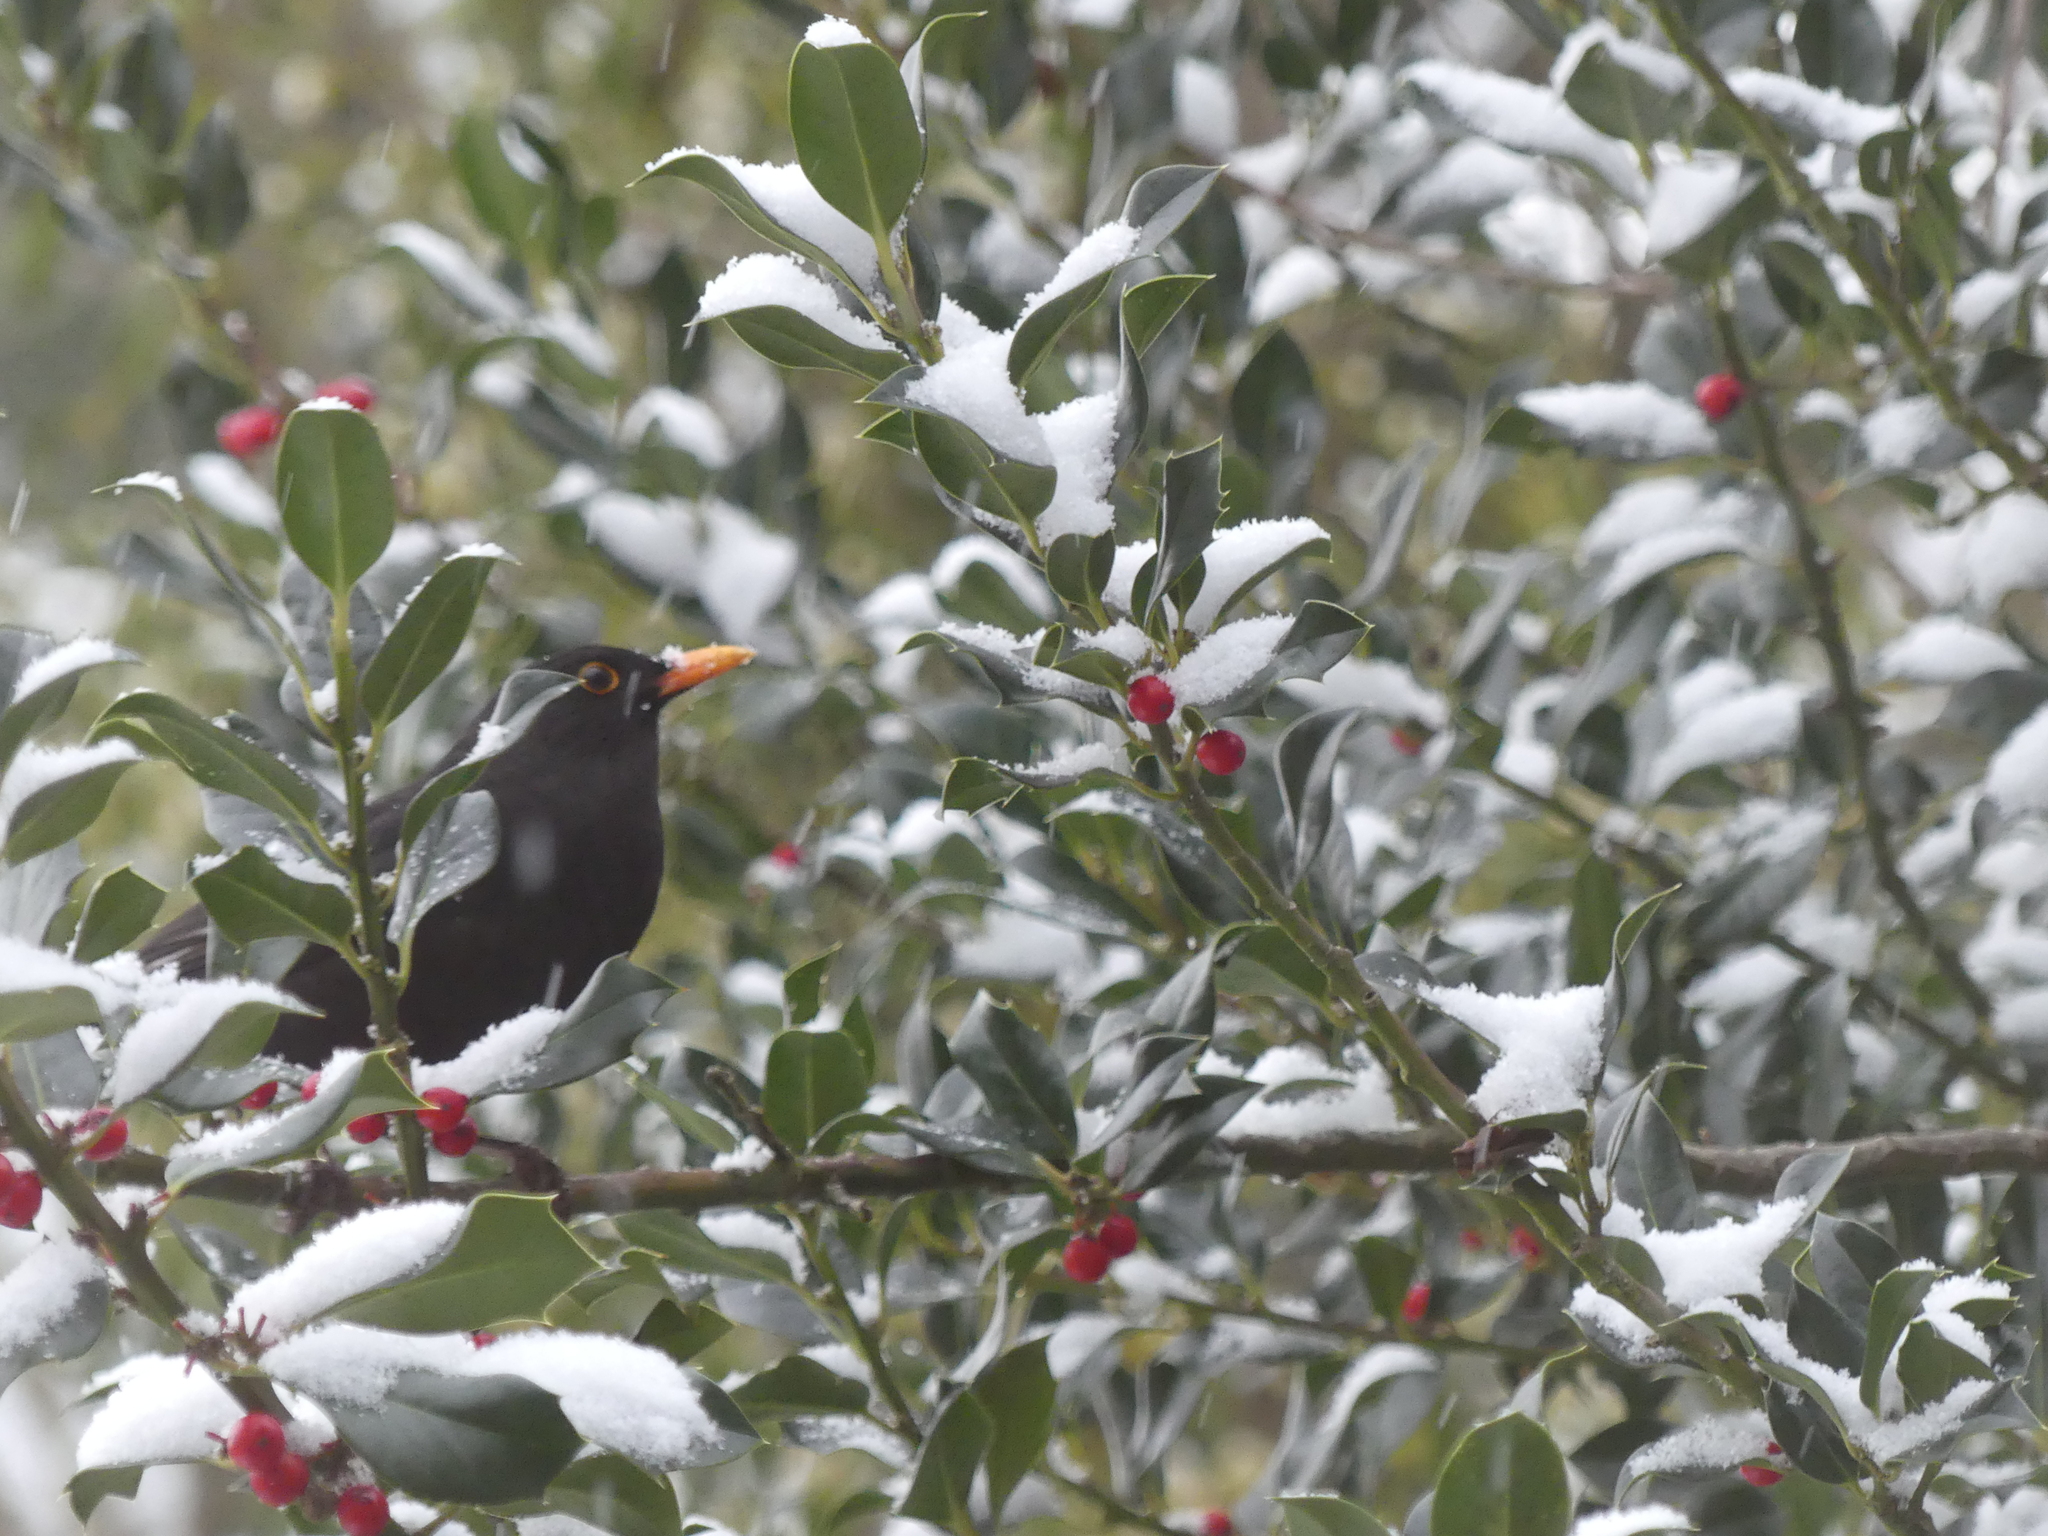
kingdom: Animalia
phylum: Chordata
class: Aves
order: Passeriformes
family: Turdidae
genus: Turdus
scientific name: Turdus merula
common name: Common blackbird
